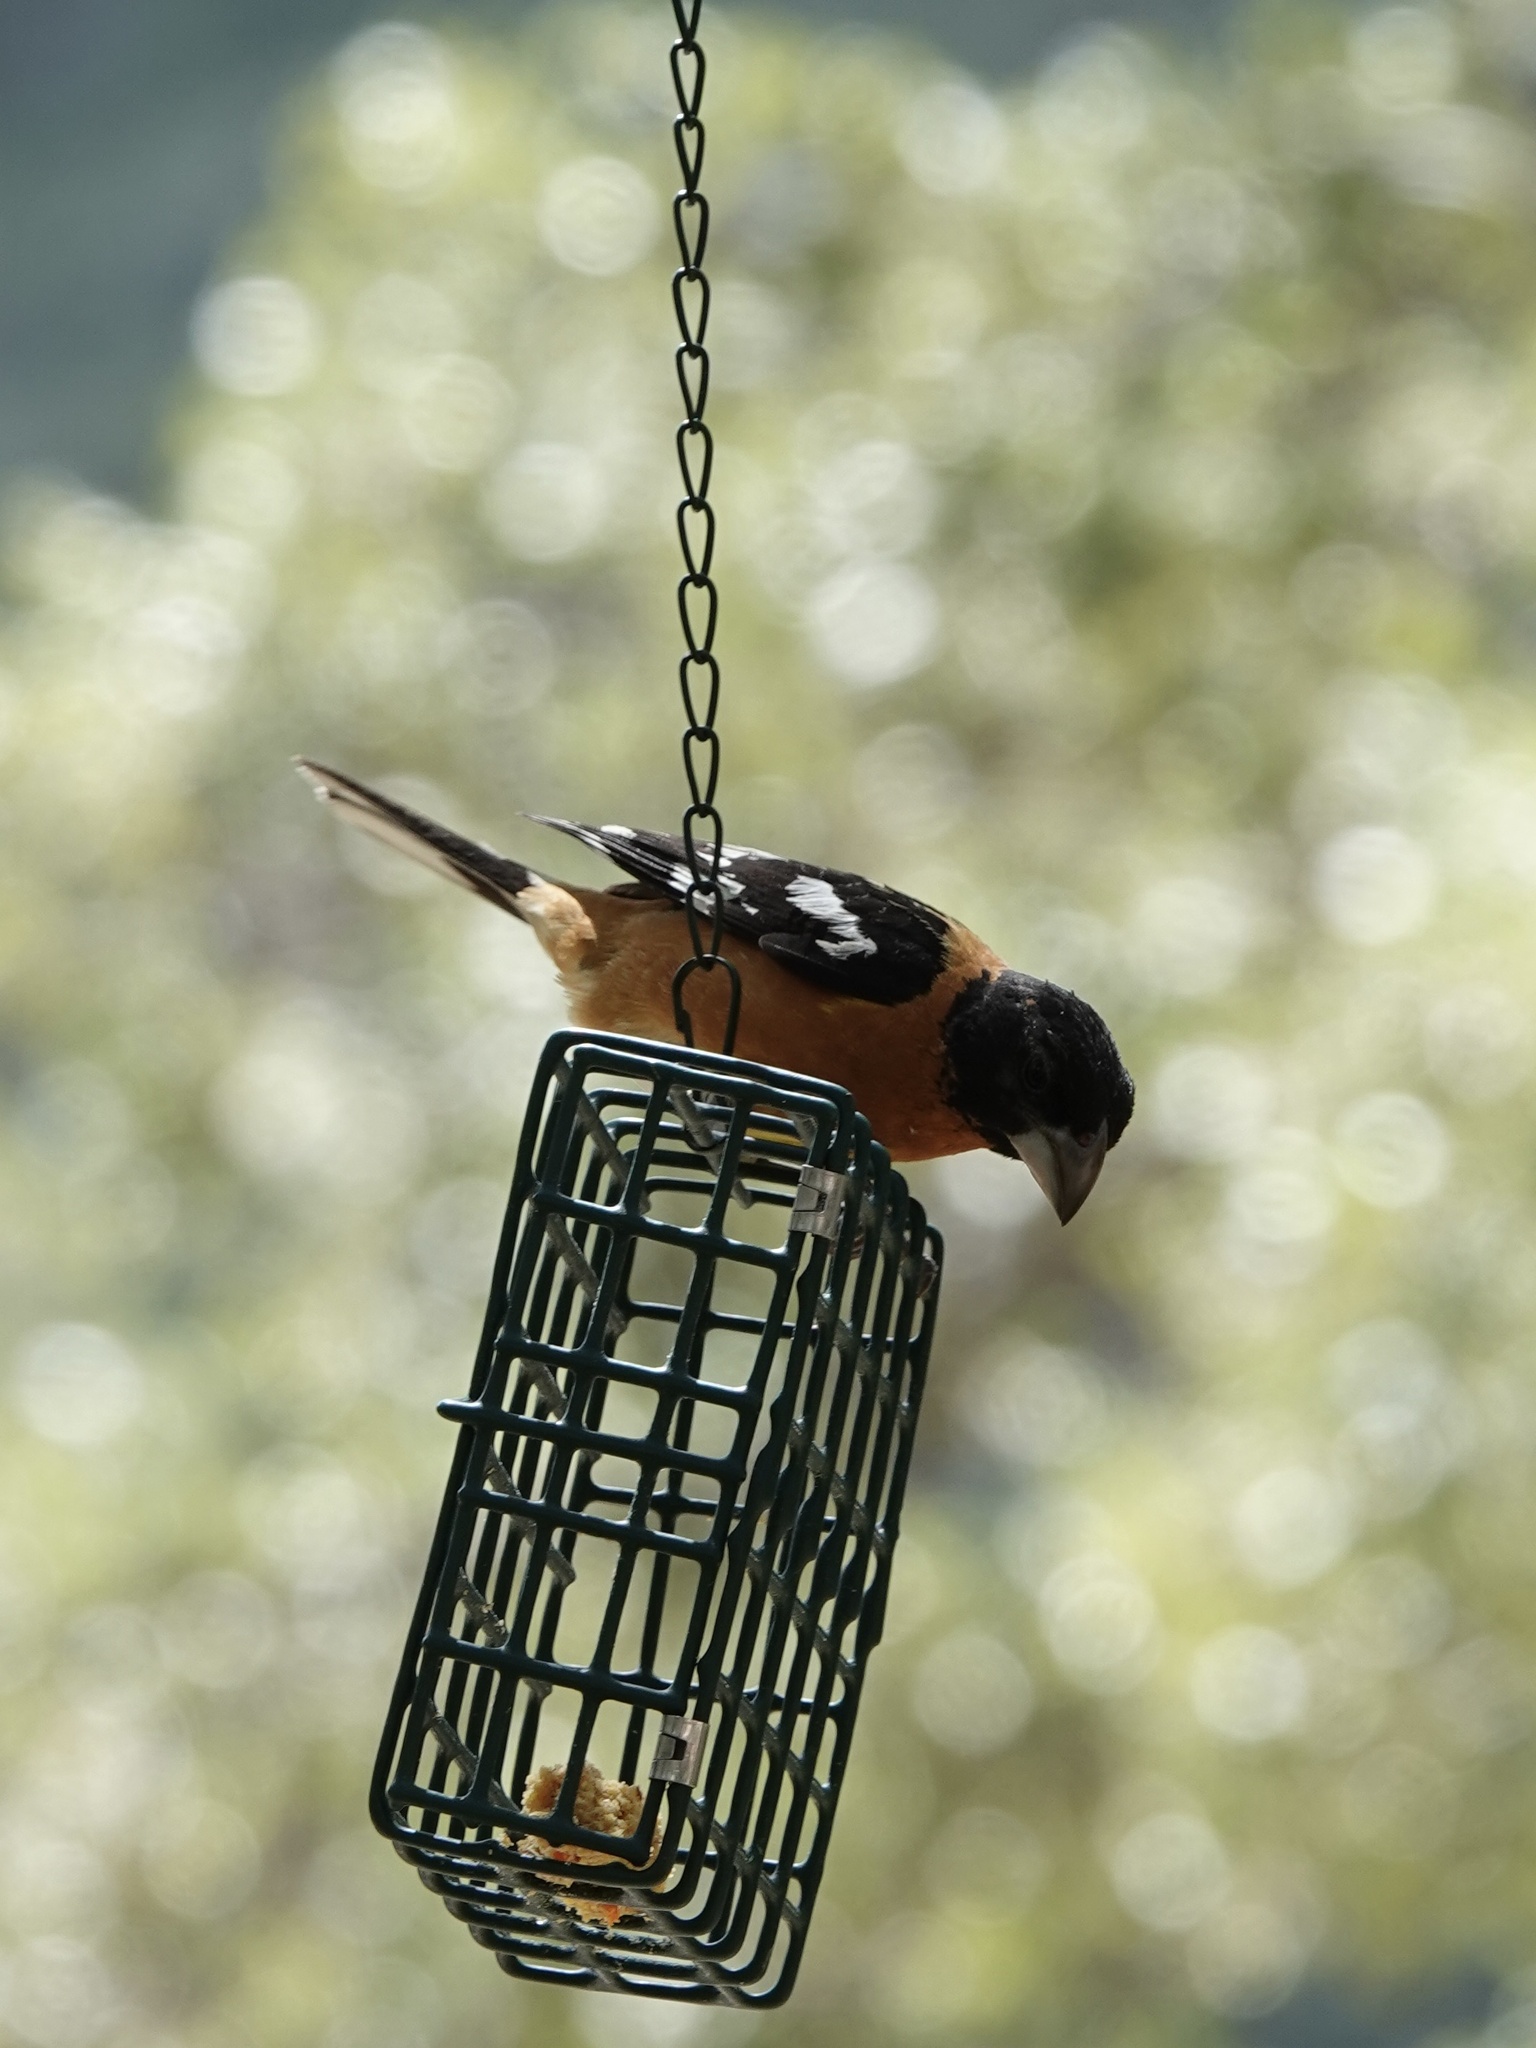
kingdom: Animalia
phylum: Chordata
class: Aves
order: Passeriformes
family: Cardinalidae
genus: Pheucticus
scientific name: Pheucticus melanocephalus
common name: Black-headed grosbeak
